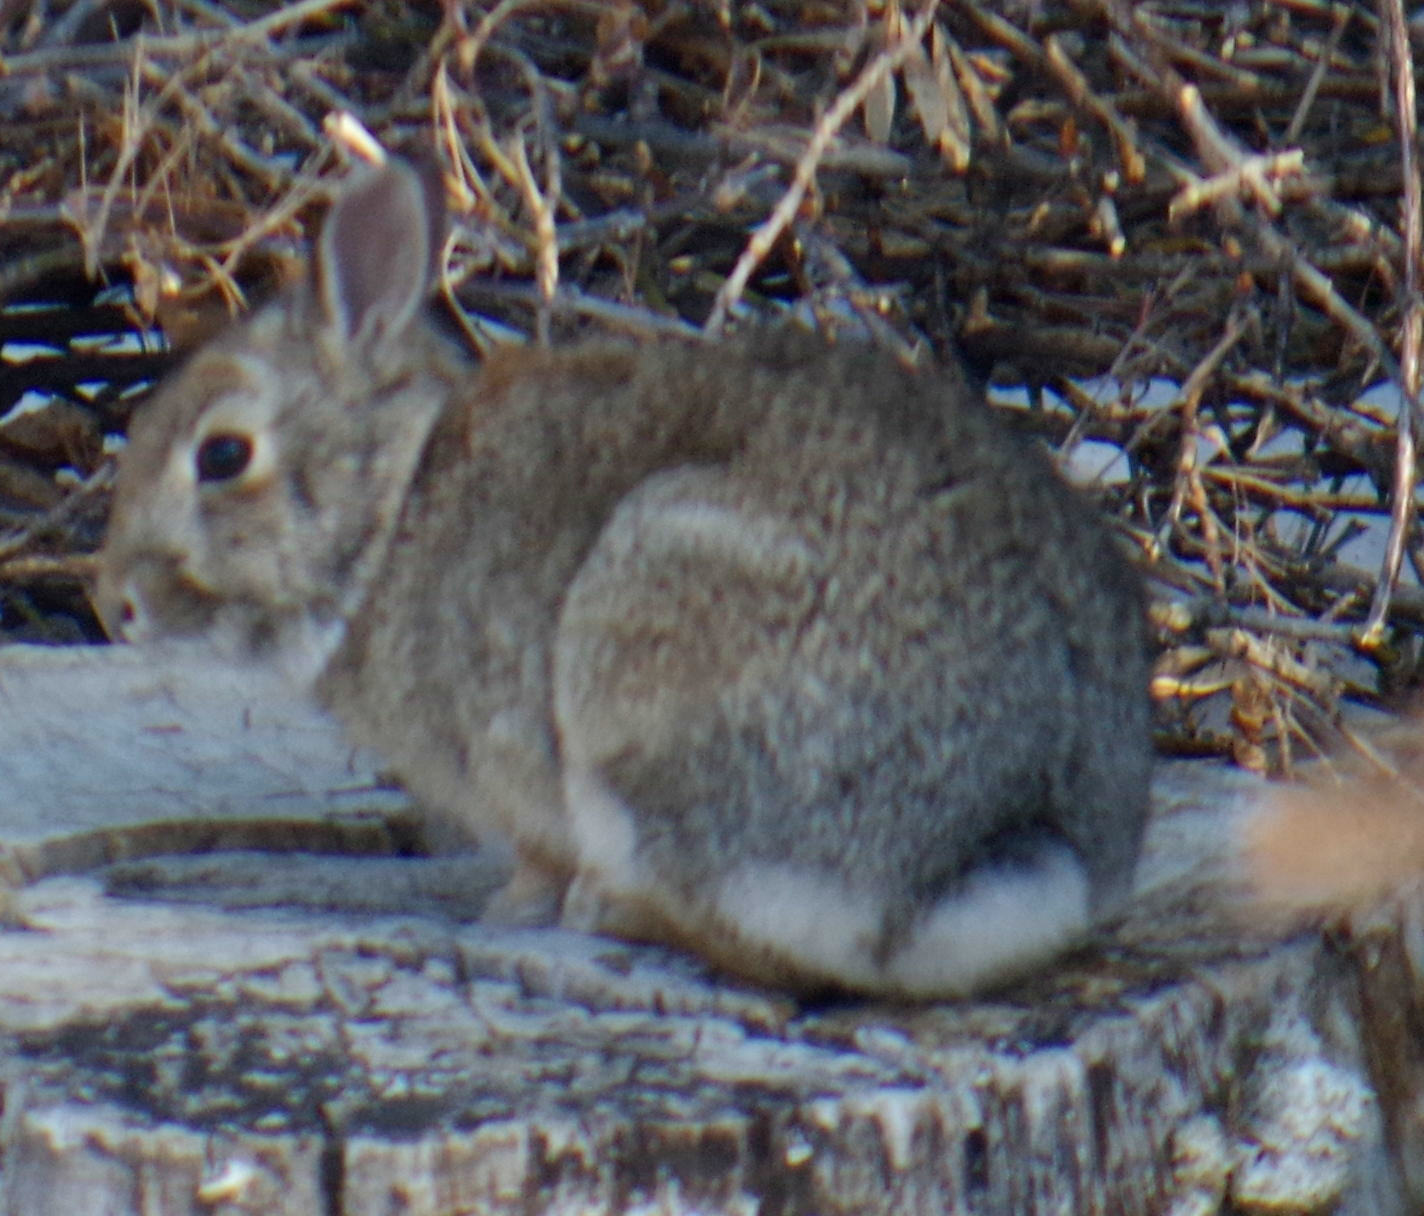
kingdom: Animalia
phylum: Chordata
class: Mammalia
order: Lagomorpha
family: Leporidae
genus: Sylvilagus
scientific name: Sylvilagus floridanus
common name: Eastern cottontail
